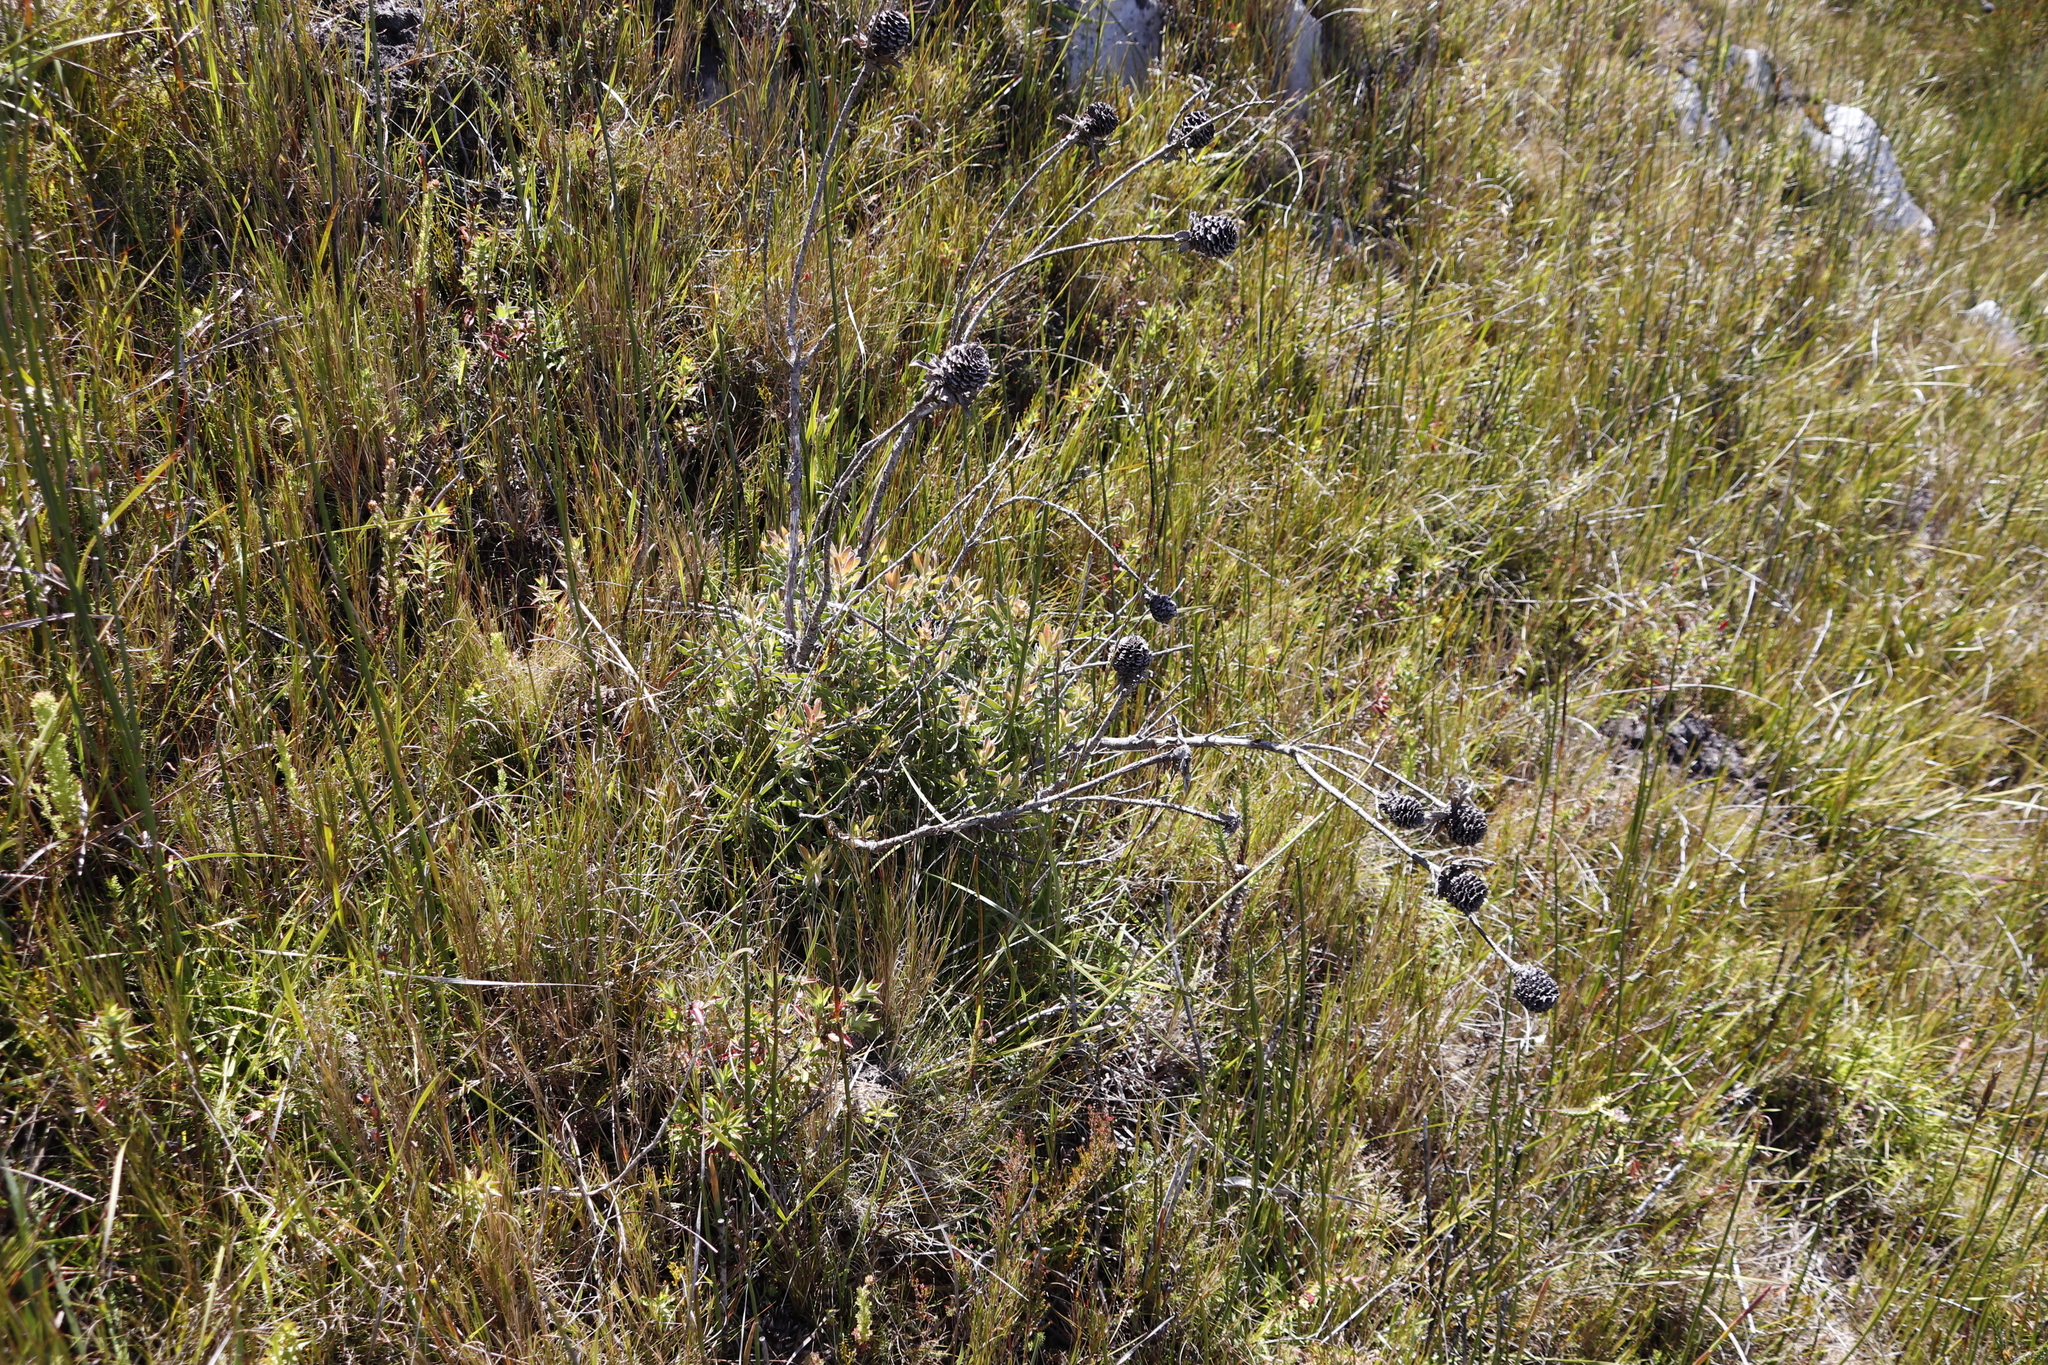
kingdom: Plantae
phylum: Tracheophyta
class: Magnoliopsida
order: Proteales
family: Proteaceae
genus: Leucadendron
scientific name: Leucadendron spissifolium
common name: Spear-leaf conebush
